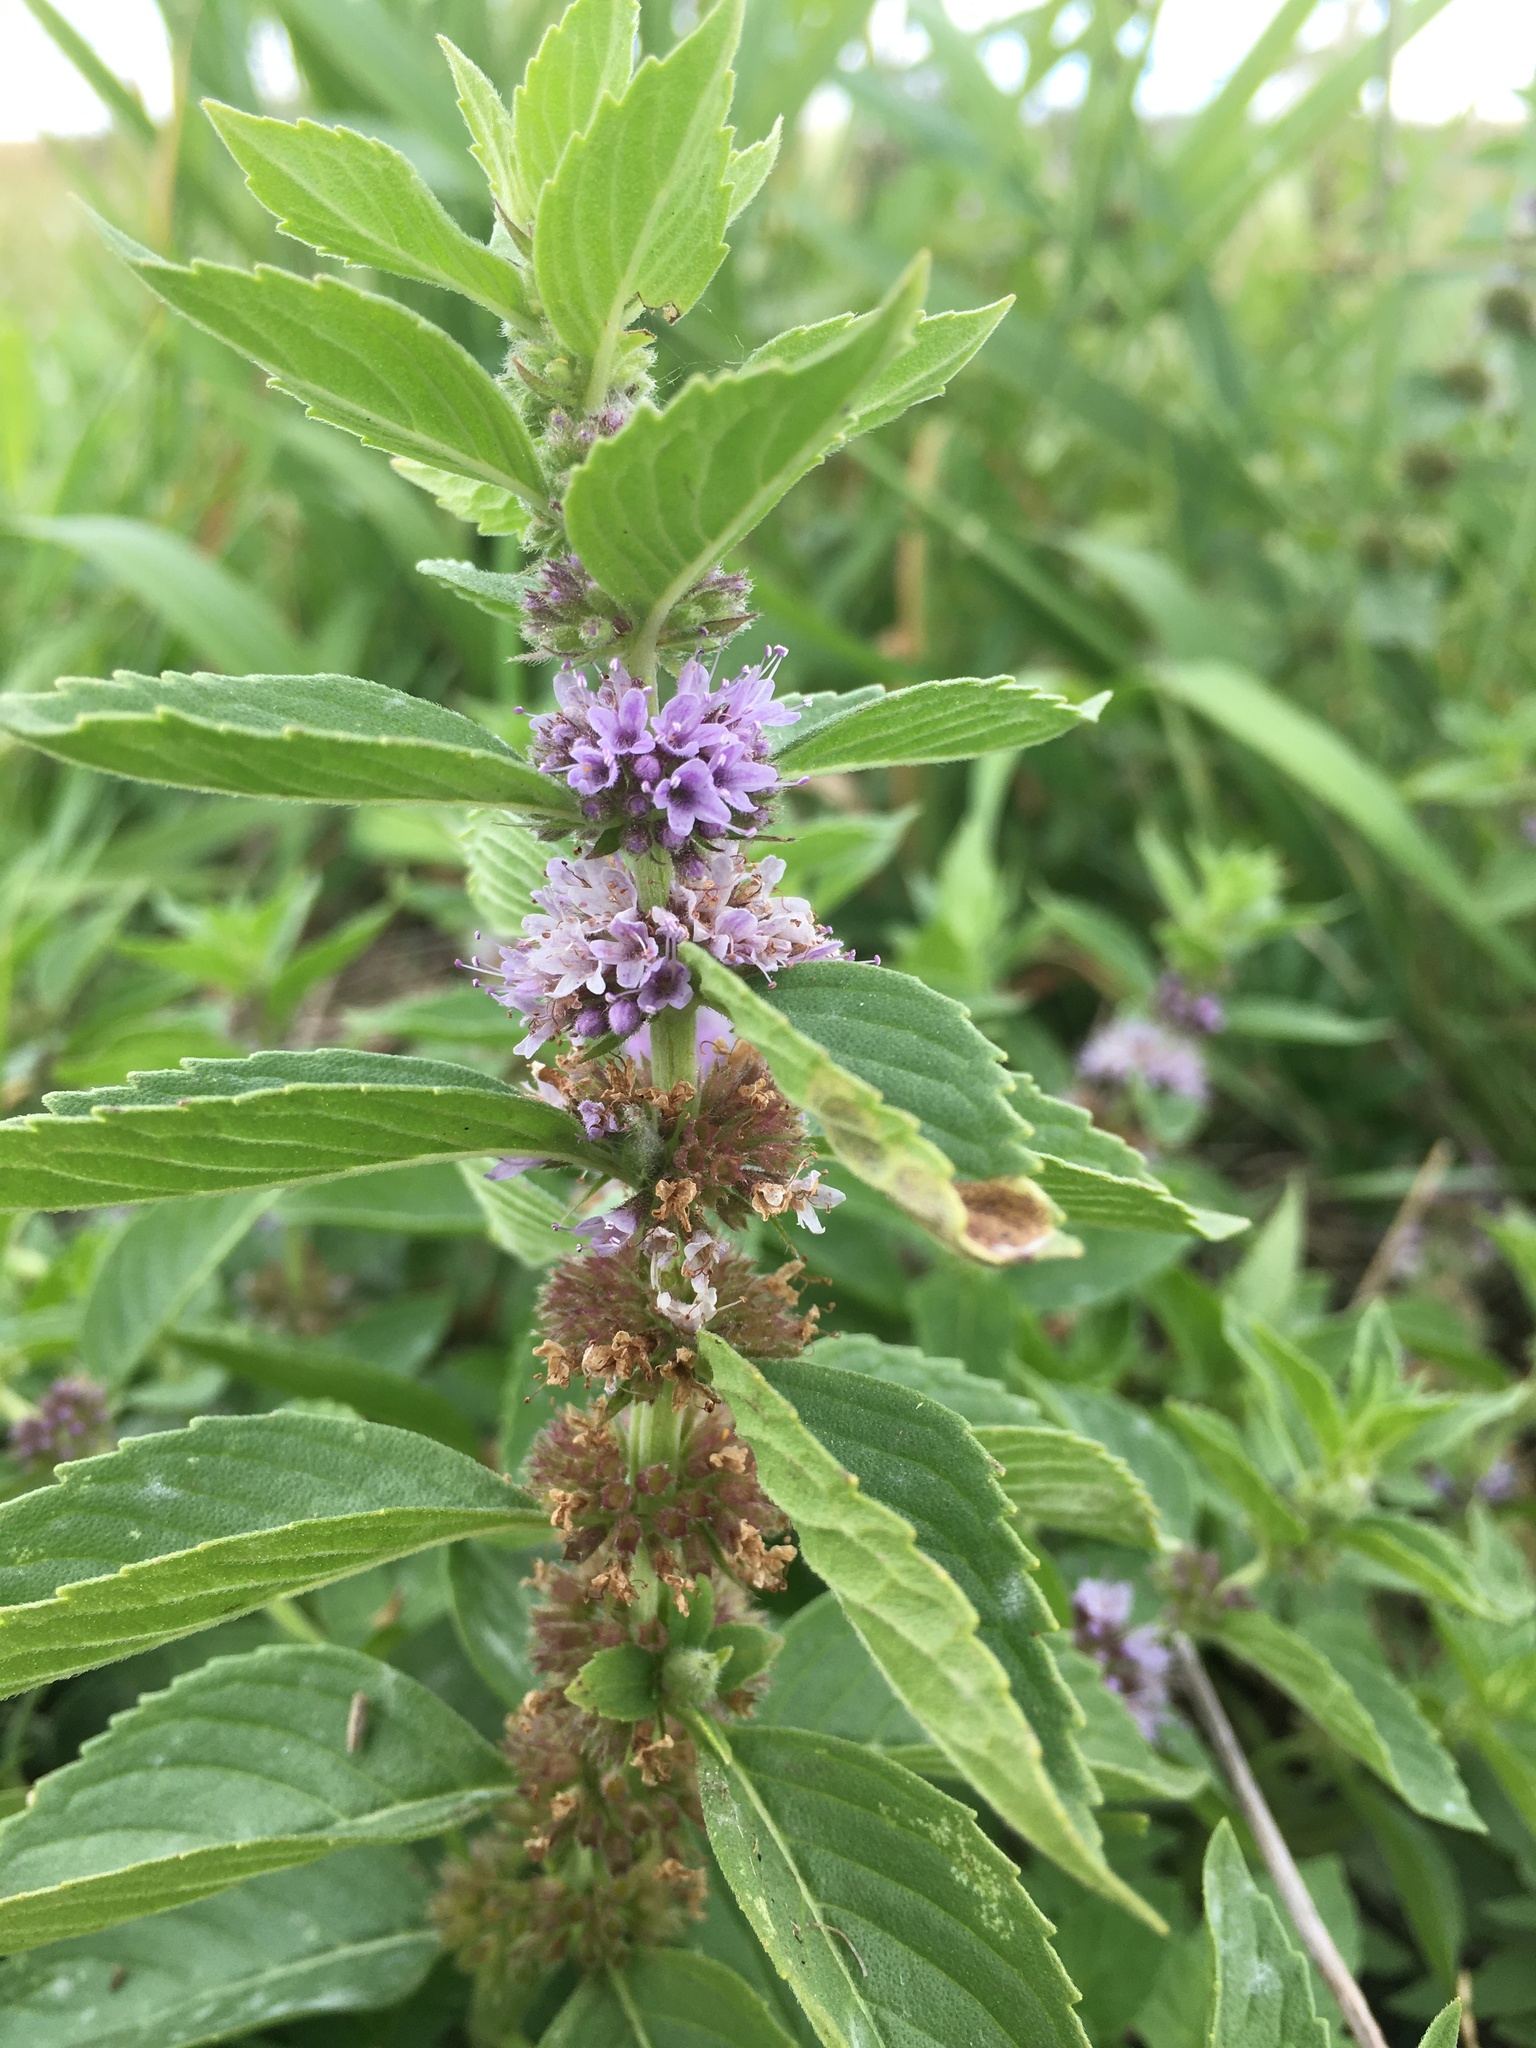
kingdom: Plantae
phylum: Tracheophyta
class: Magnoliopsida
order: Lamiales
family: Lamiaceae
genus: Mentha
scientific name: Mentha canadensis
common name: American corn mint
